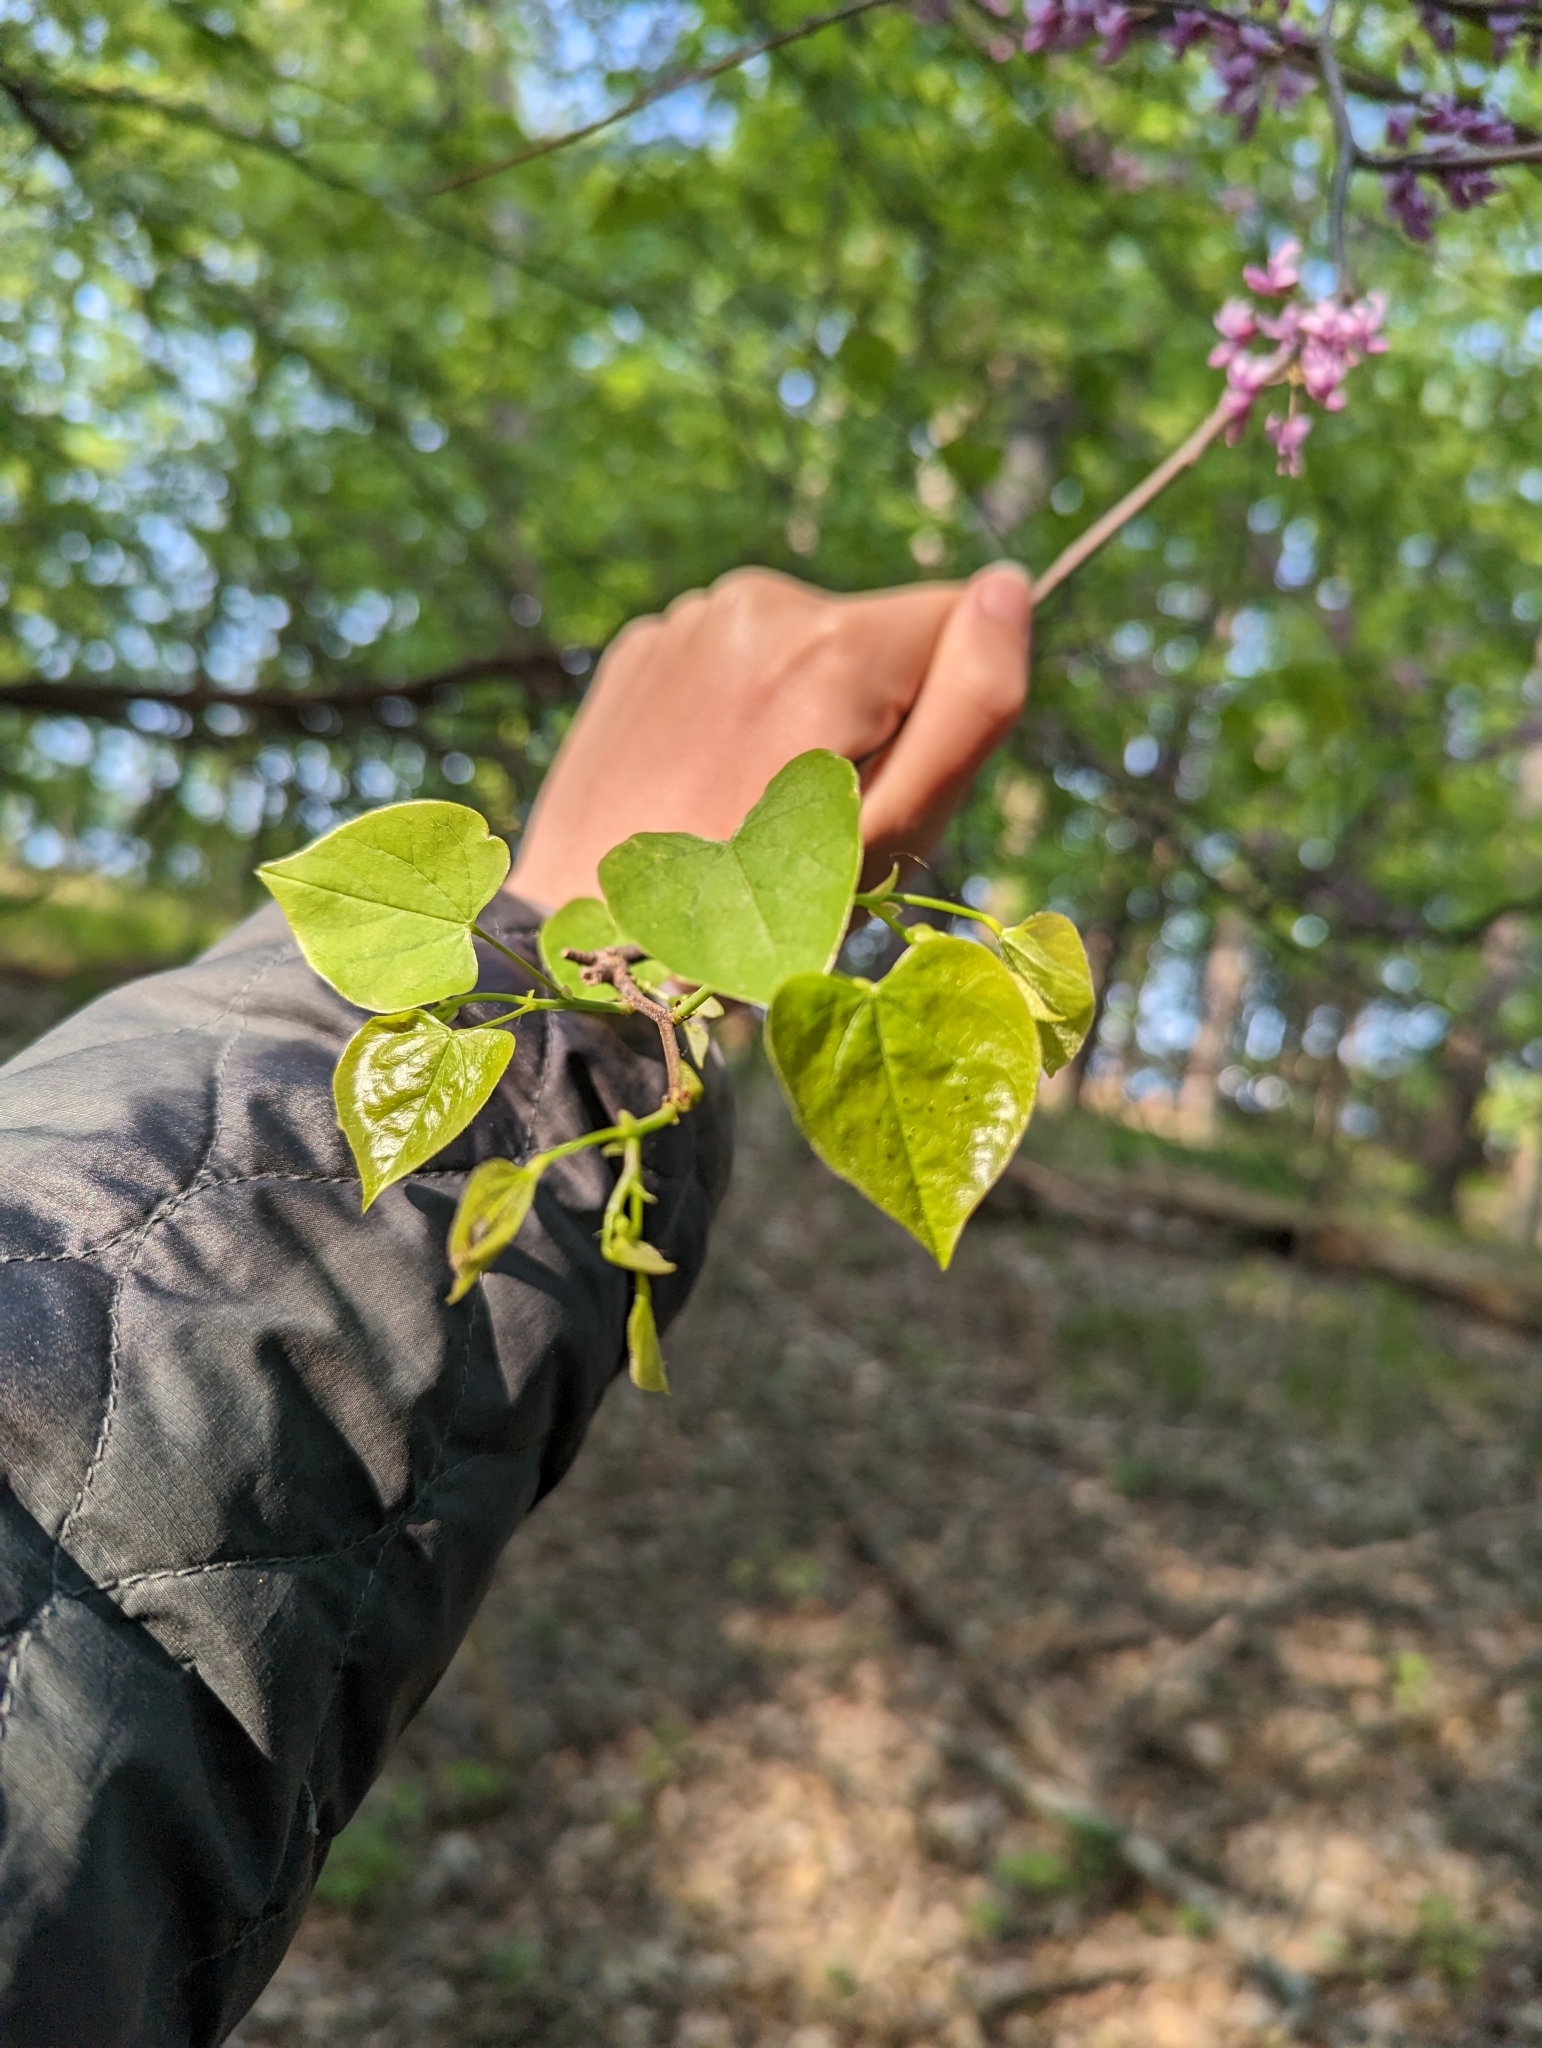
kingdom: Plantae
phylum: Tracheophyta
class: Magnoliopsida
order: Fabales
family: Fabaceae
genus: Cercis
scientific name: Cercis canadensis
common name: Eastern redbud
